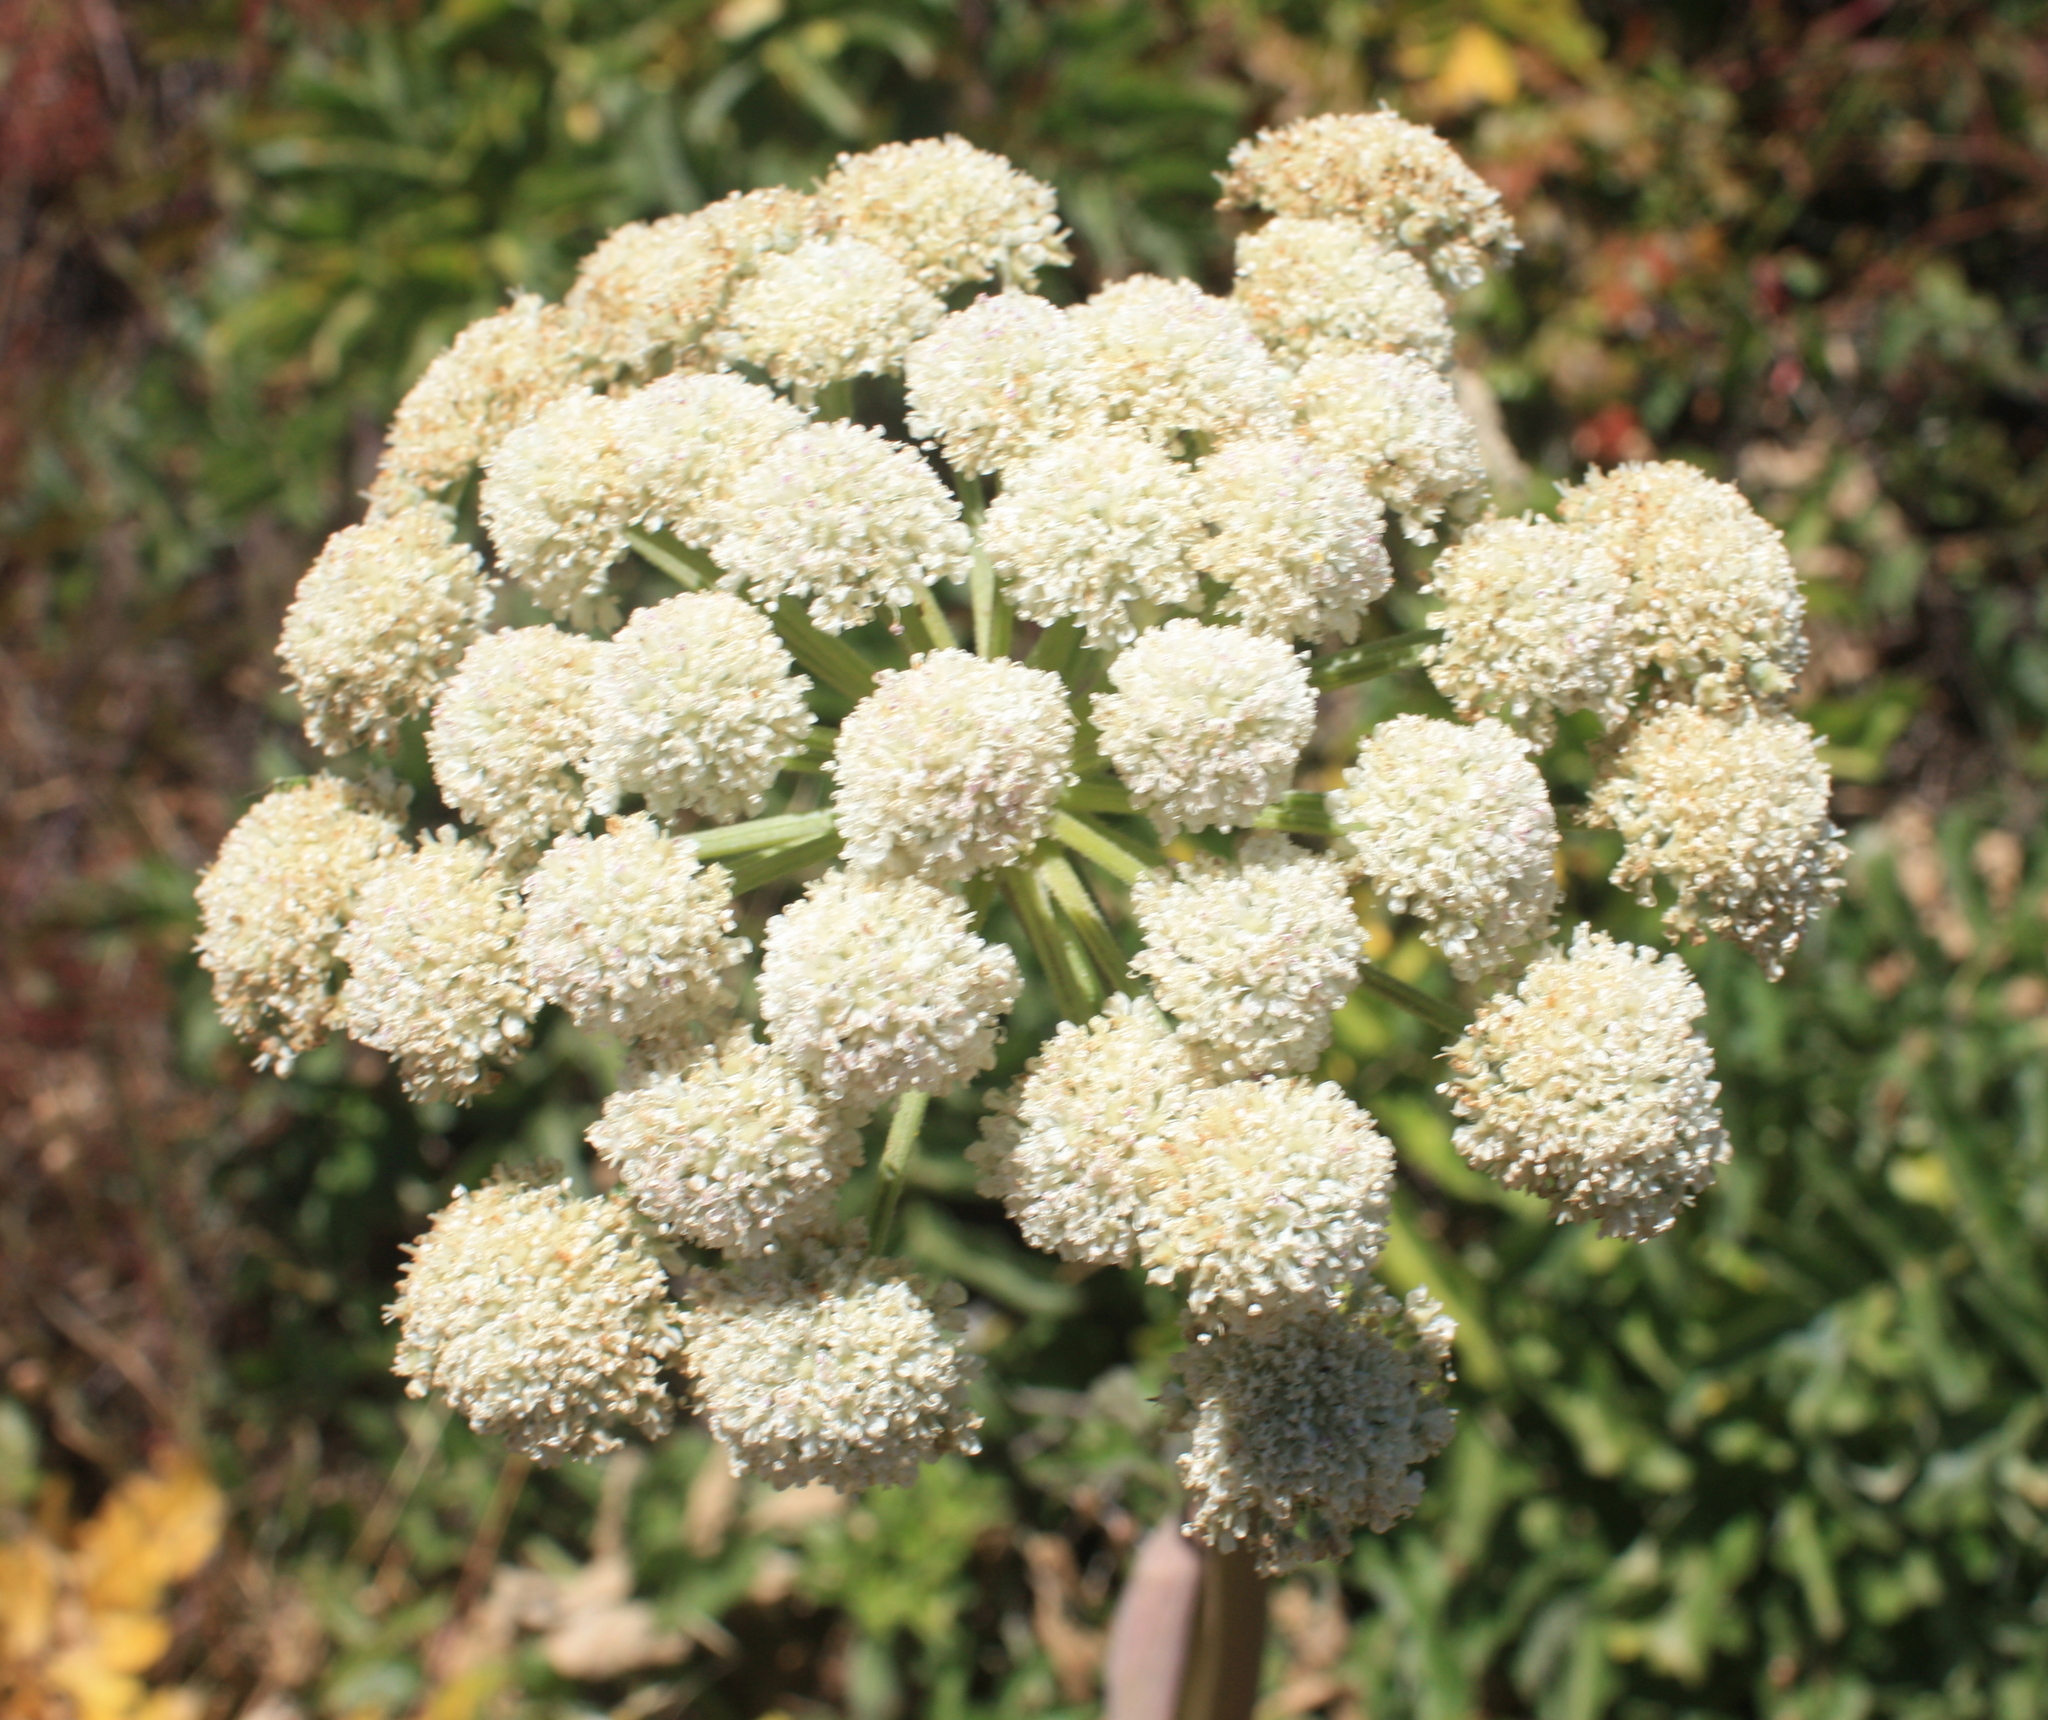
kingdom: Plantae
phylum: Tracheophyta
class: Magnoliopsida
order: Apiales
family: Apiaceae
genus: Angelica
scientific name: Angelica hendersonii
